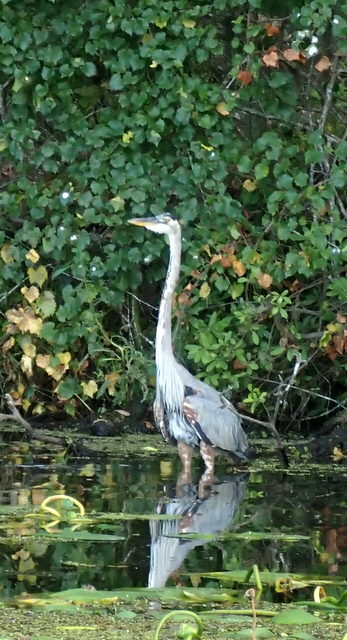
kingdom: Animalia
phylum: Chordata
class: Aves
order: Pelecaniformes
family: Ardeidae
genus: Ardea
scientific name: Ardea herodias
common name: Great blue heron
